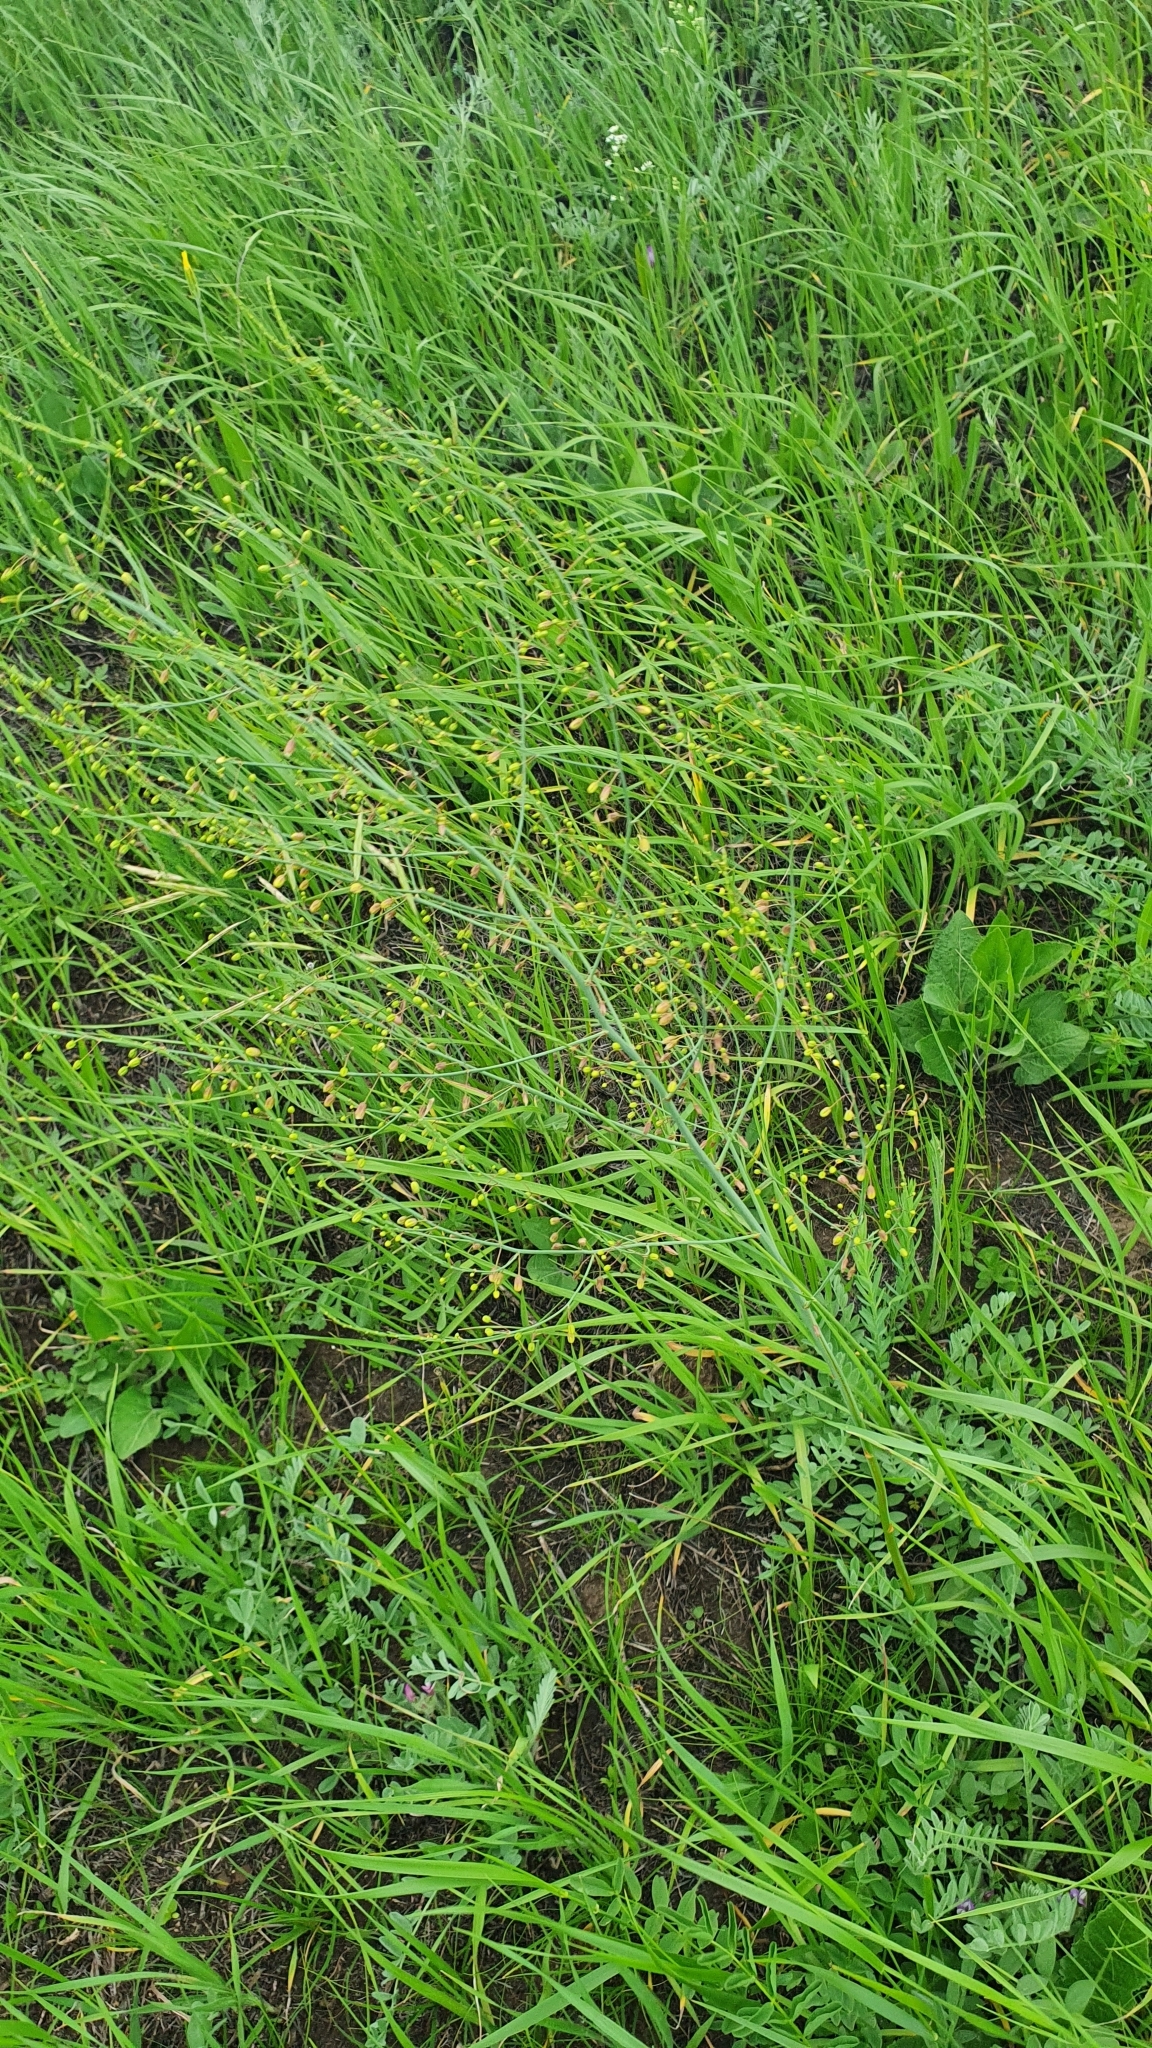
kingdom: Plantae
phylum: Tracheophyta
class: Liliopsida
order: Asparagales
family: Asparagaceae
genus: Asparagus
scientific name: Asparagus officinalis
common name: Garden asparagus
